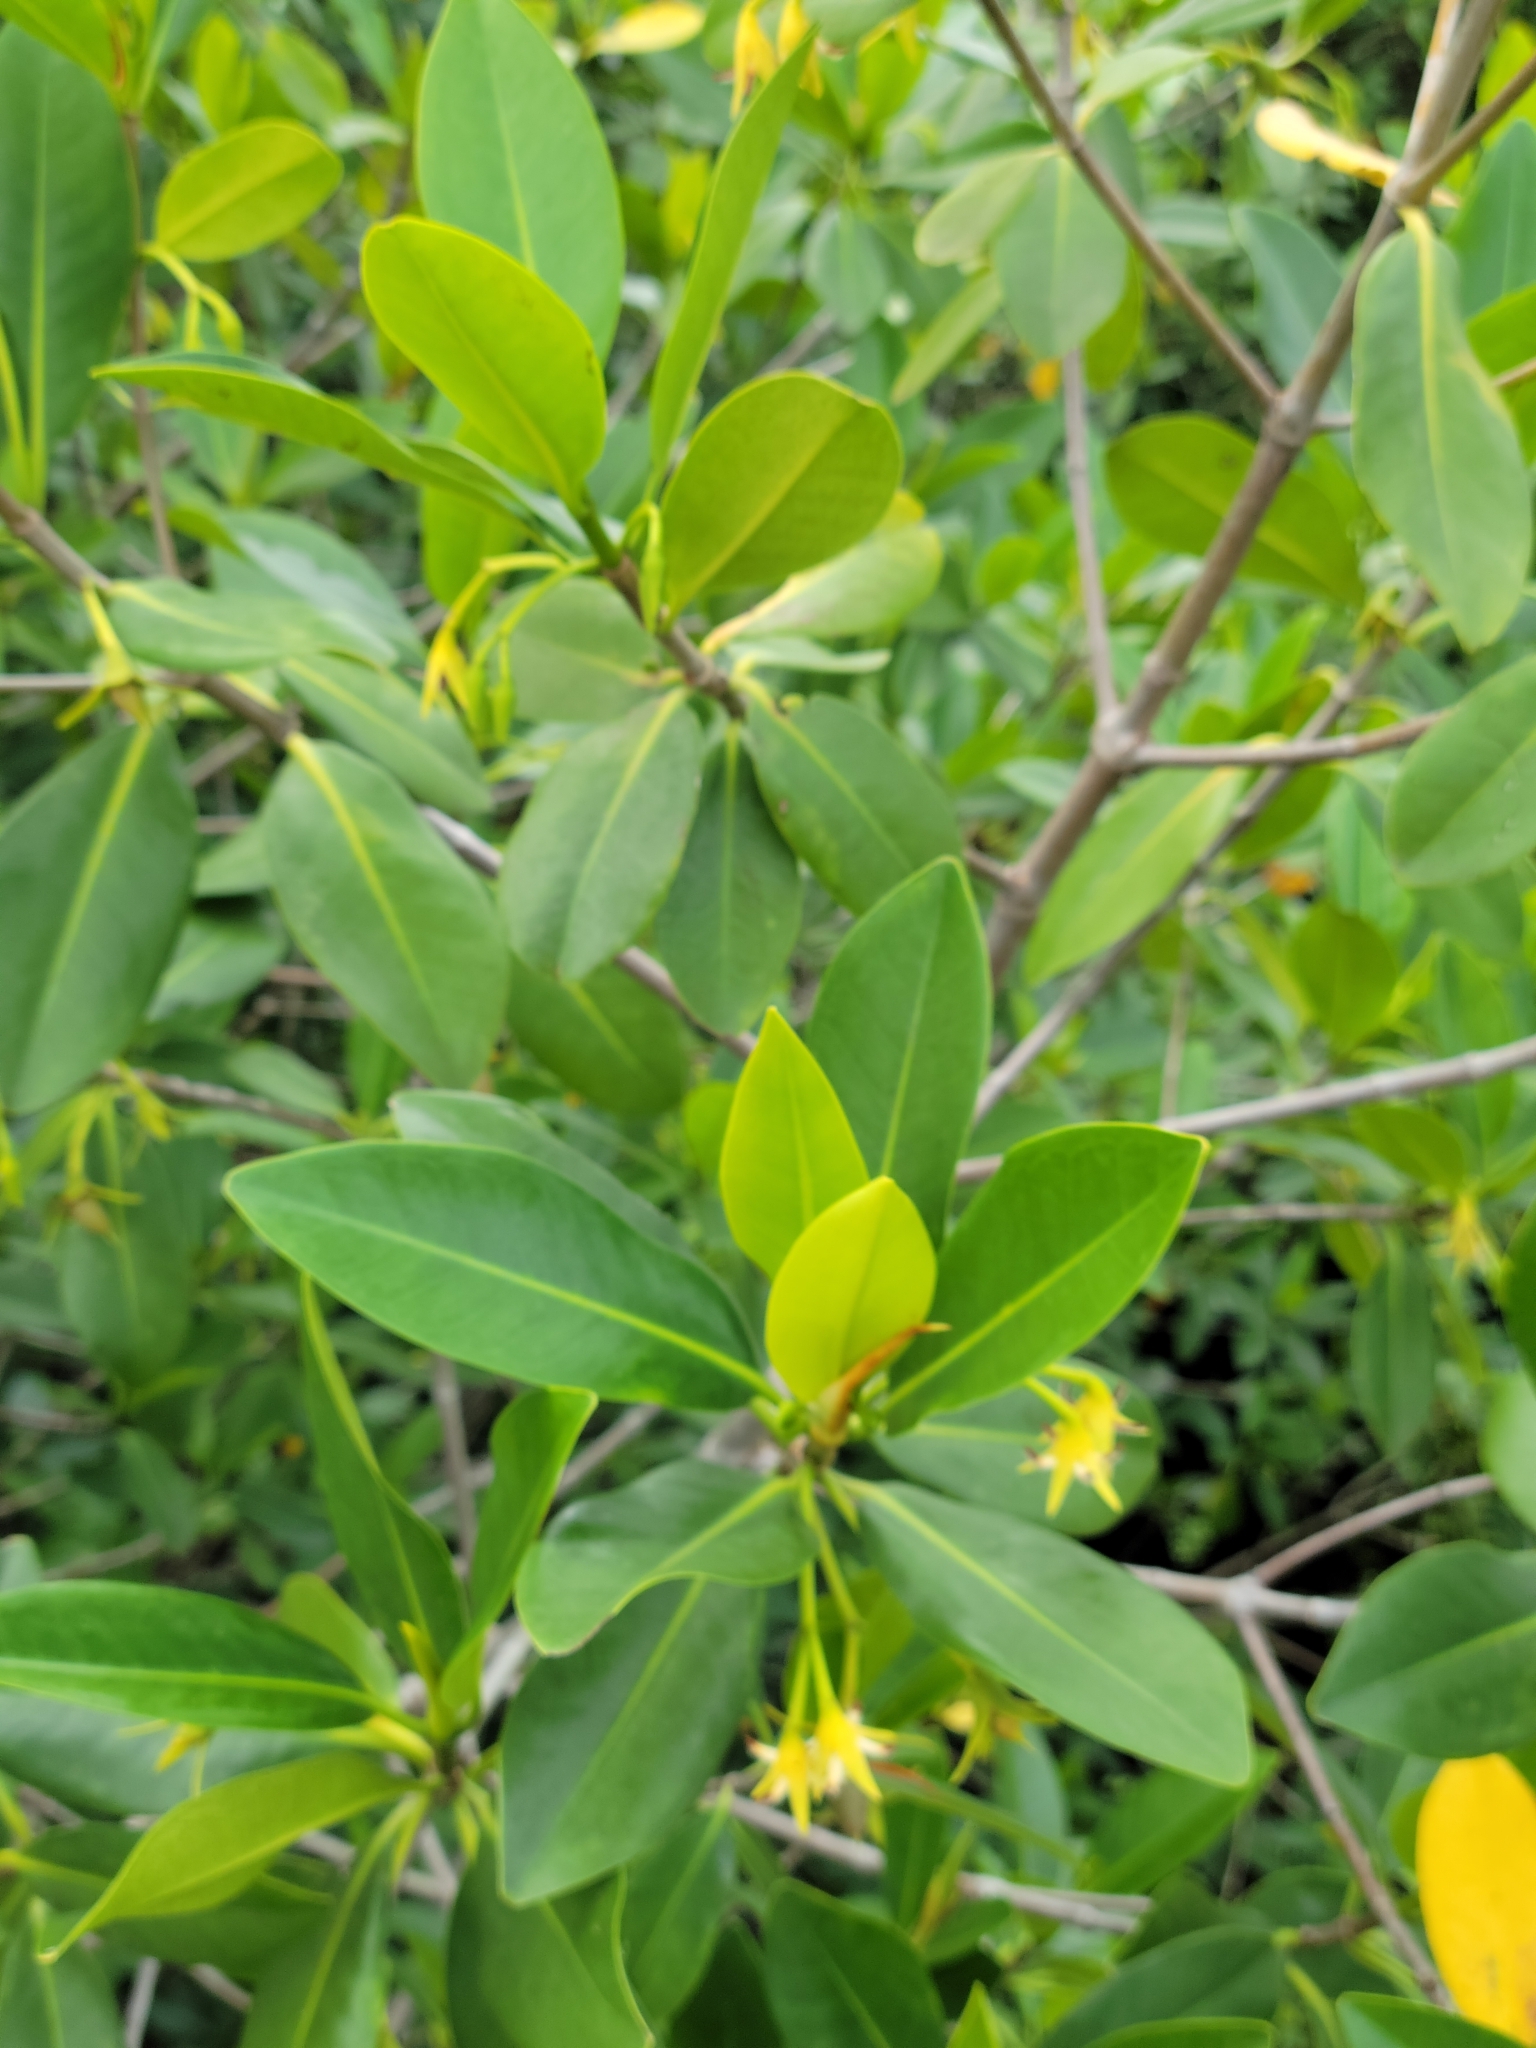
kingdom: Plantae
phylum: Tracheophyta
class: Magnoliopsida
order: Malpighiales
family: Rhizophoraceae
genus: Rhizophora
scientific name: Rhizophora mangle
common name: Red mangrove
